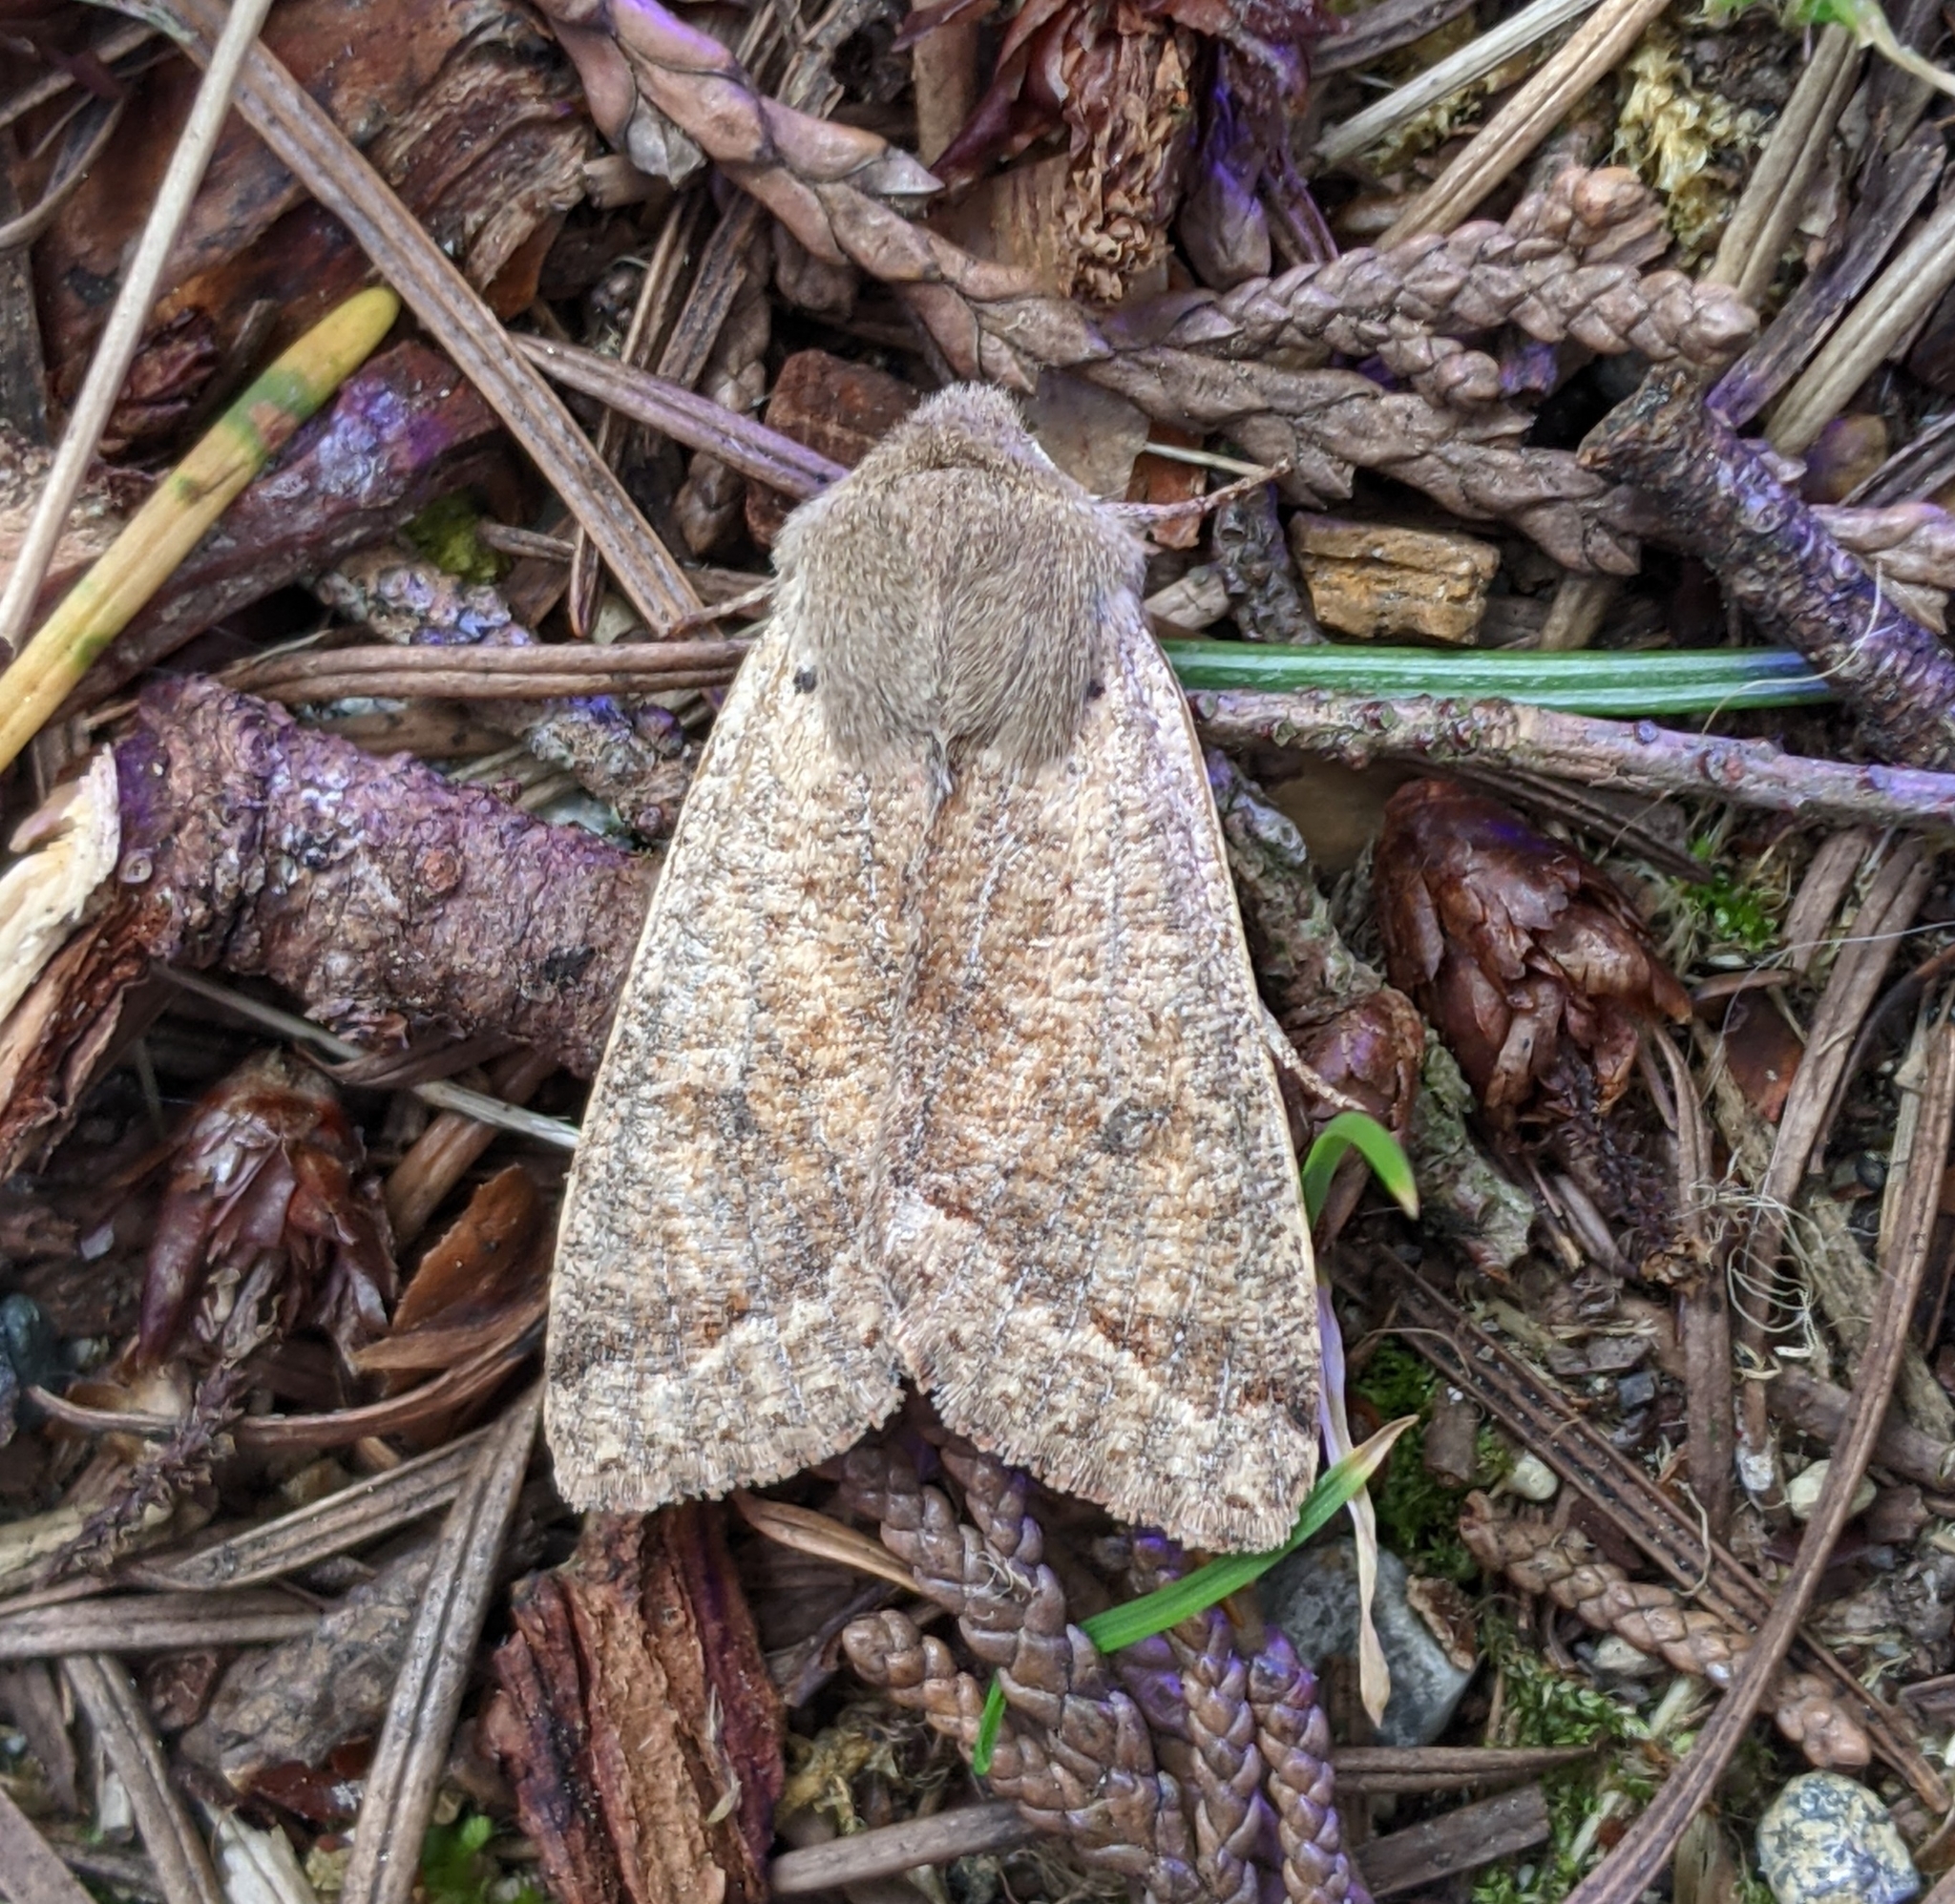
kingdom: Animalia
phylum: Arthropoda
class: Insecta
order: Lepidoptera
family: Noctuidae
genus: Orthosia
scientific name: Orthosia pacifica
